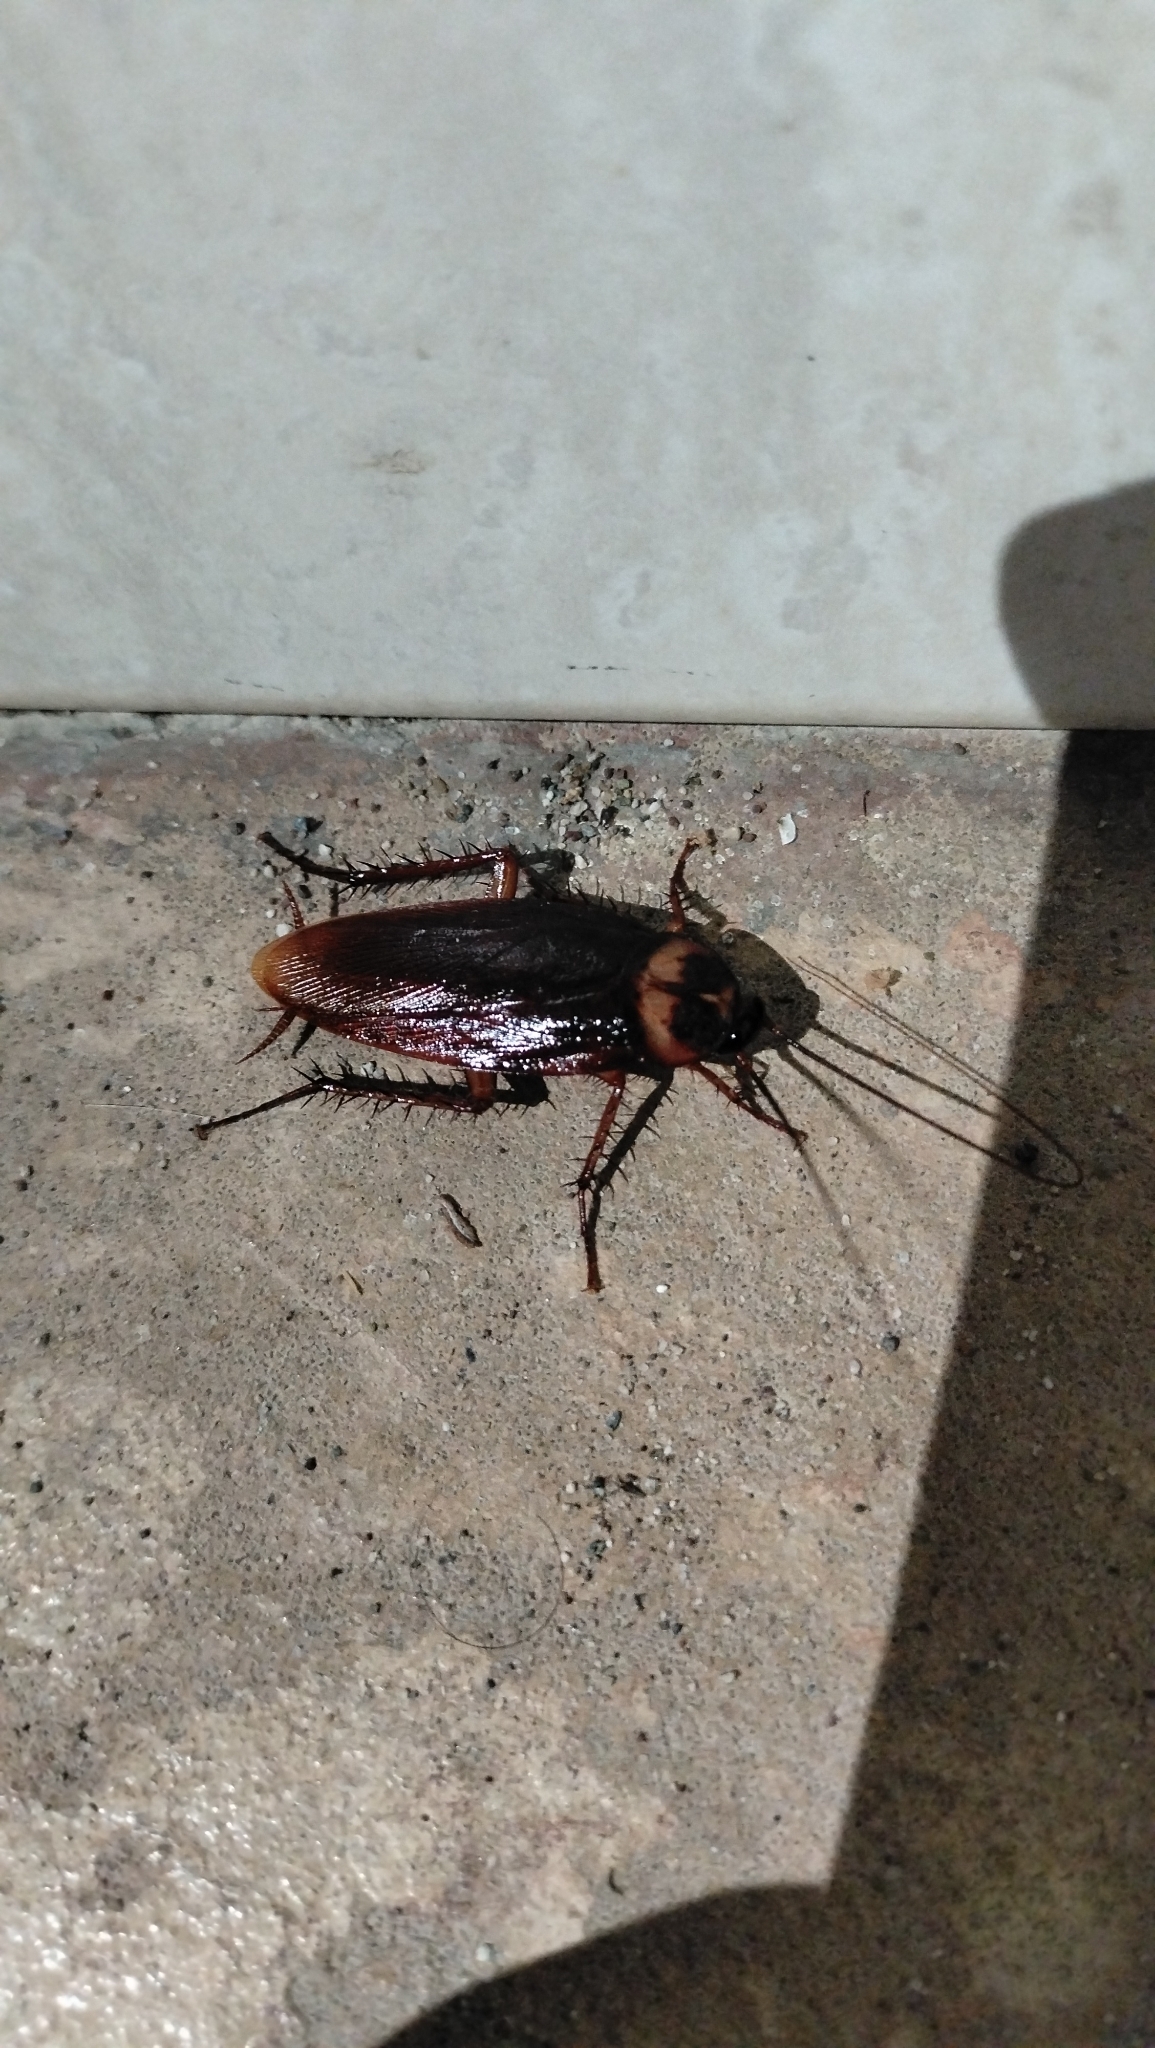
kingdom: Animalia
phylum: Arthropoda
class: Insecta
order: Blattodea
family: Blattidae
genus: Periplaneta
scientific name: Periplaneta americana
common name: American cockroach
